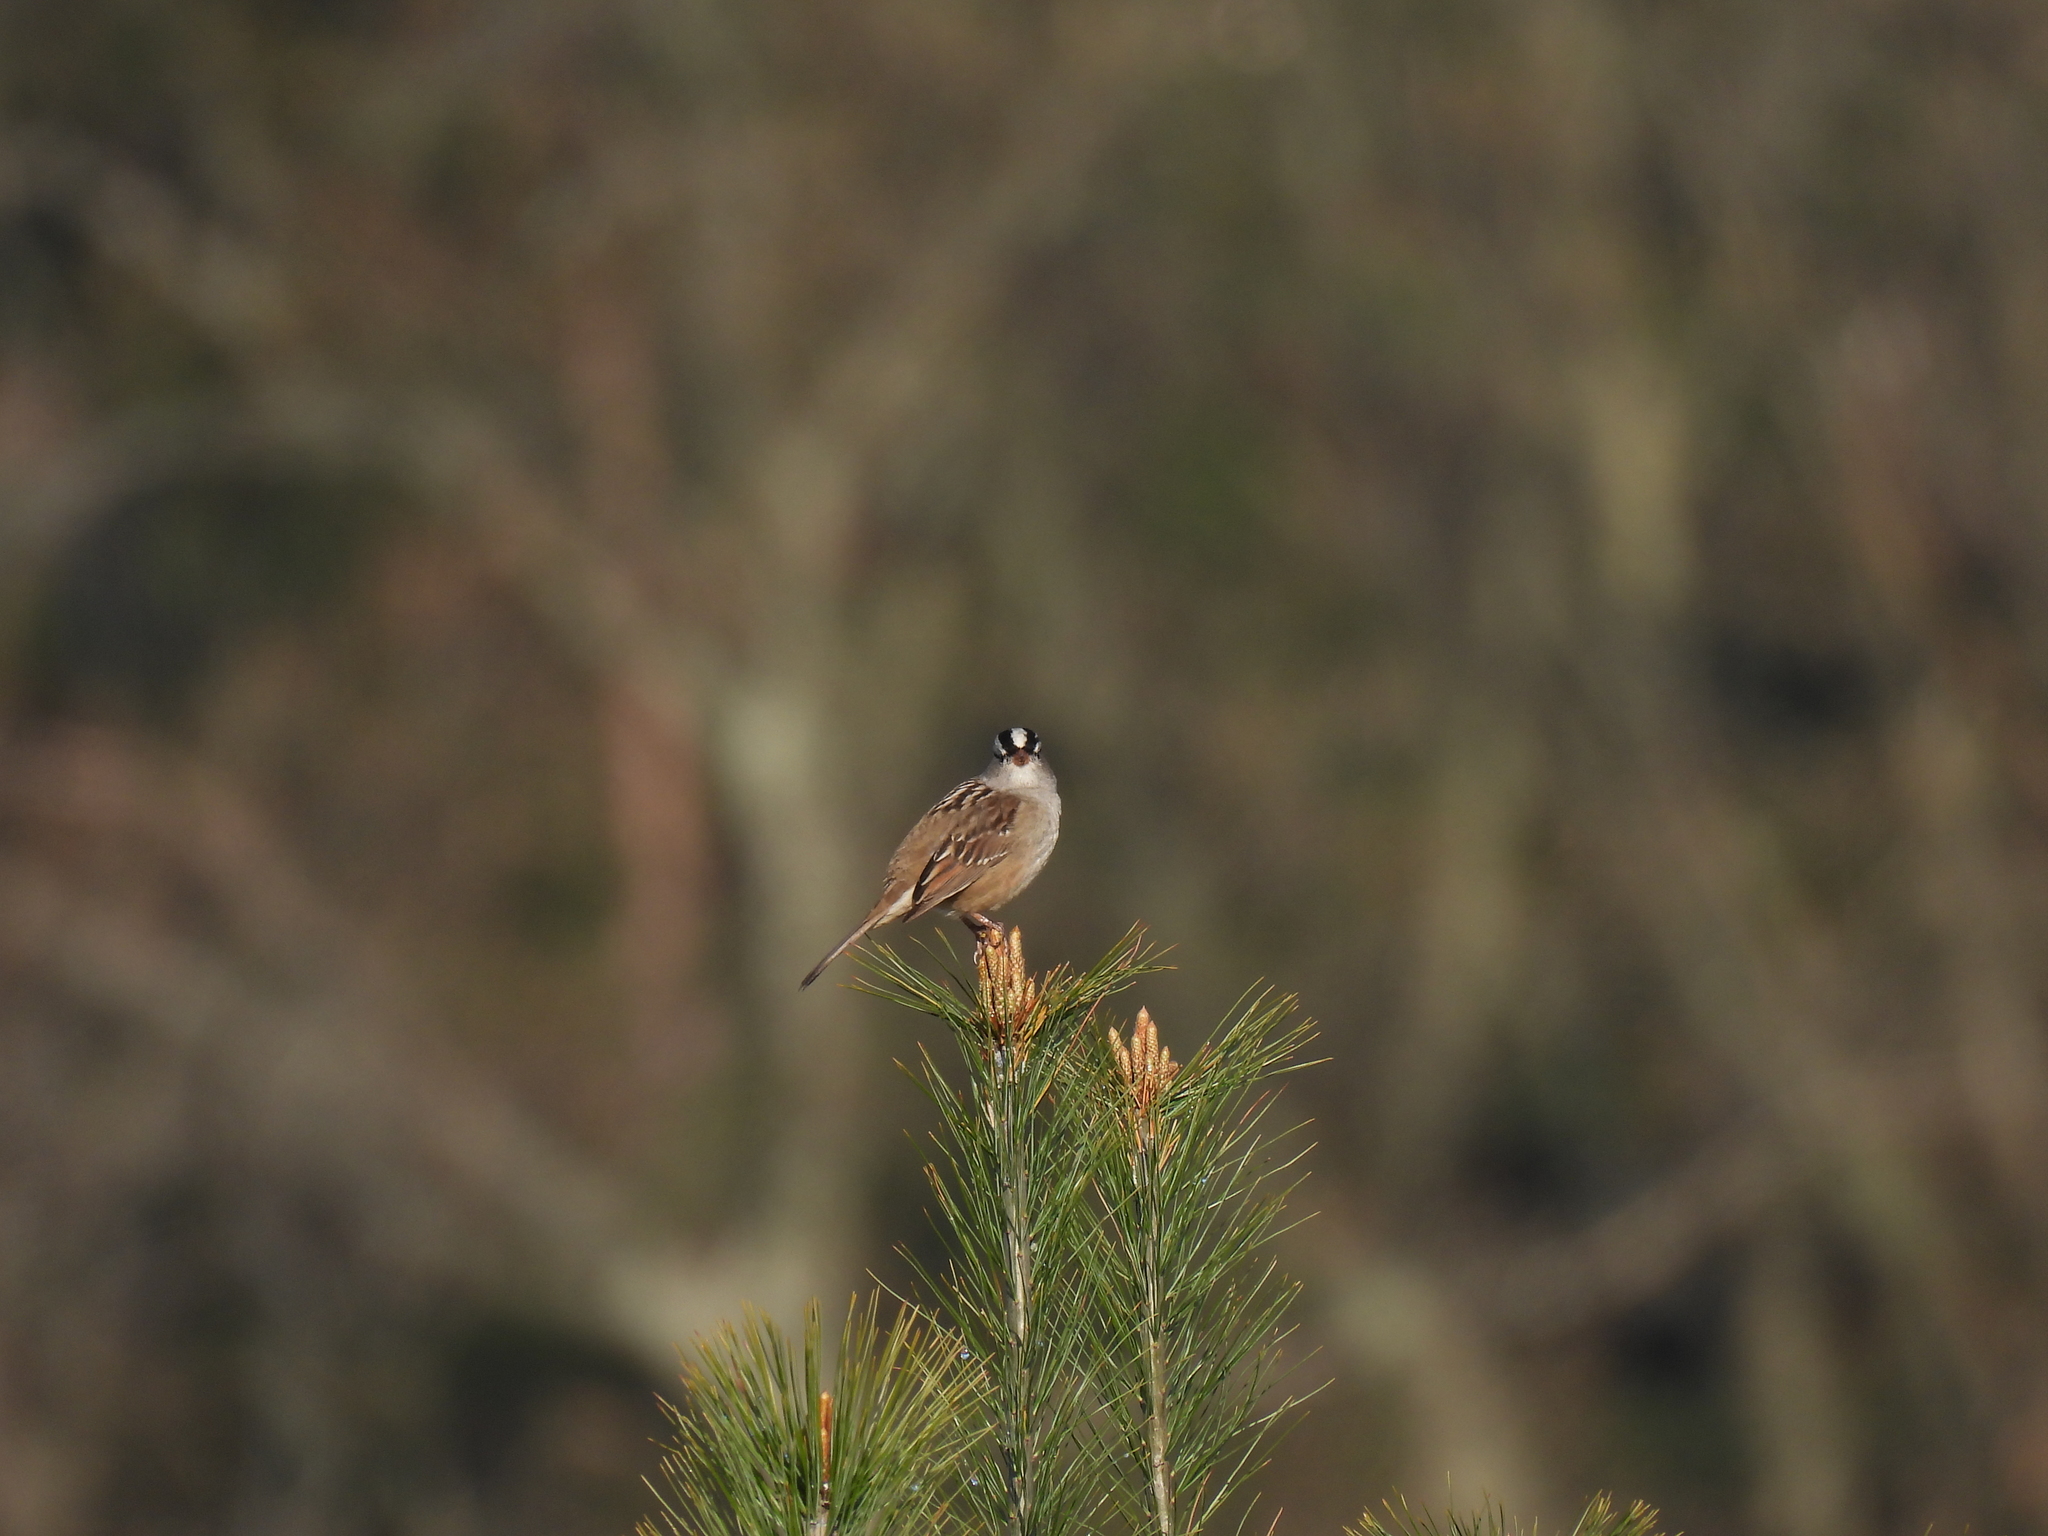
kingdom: Animalia
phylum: Chordata
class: Aves
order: Passeriformes
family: Passerellidae
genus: Zonotrichia
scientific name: Zonotrichia leucophrys
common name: White-crowned sparrow
